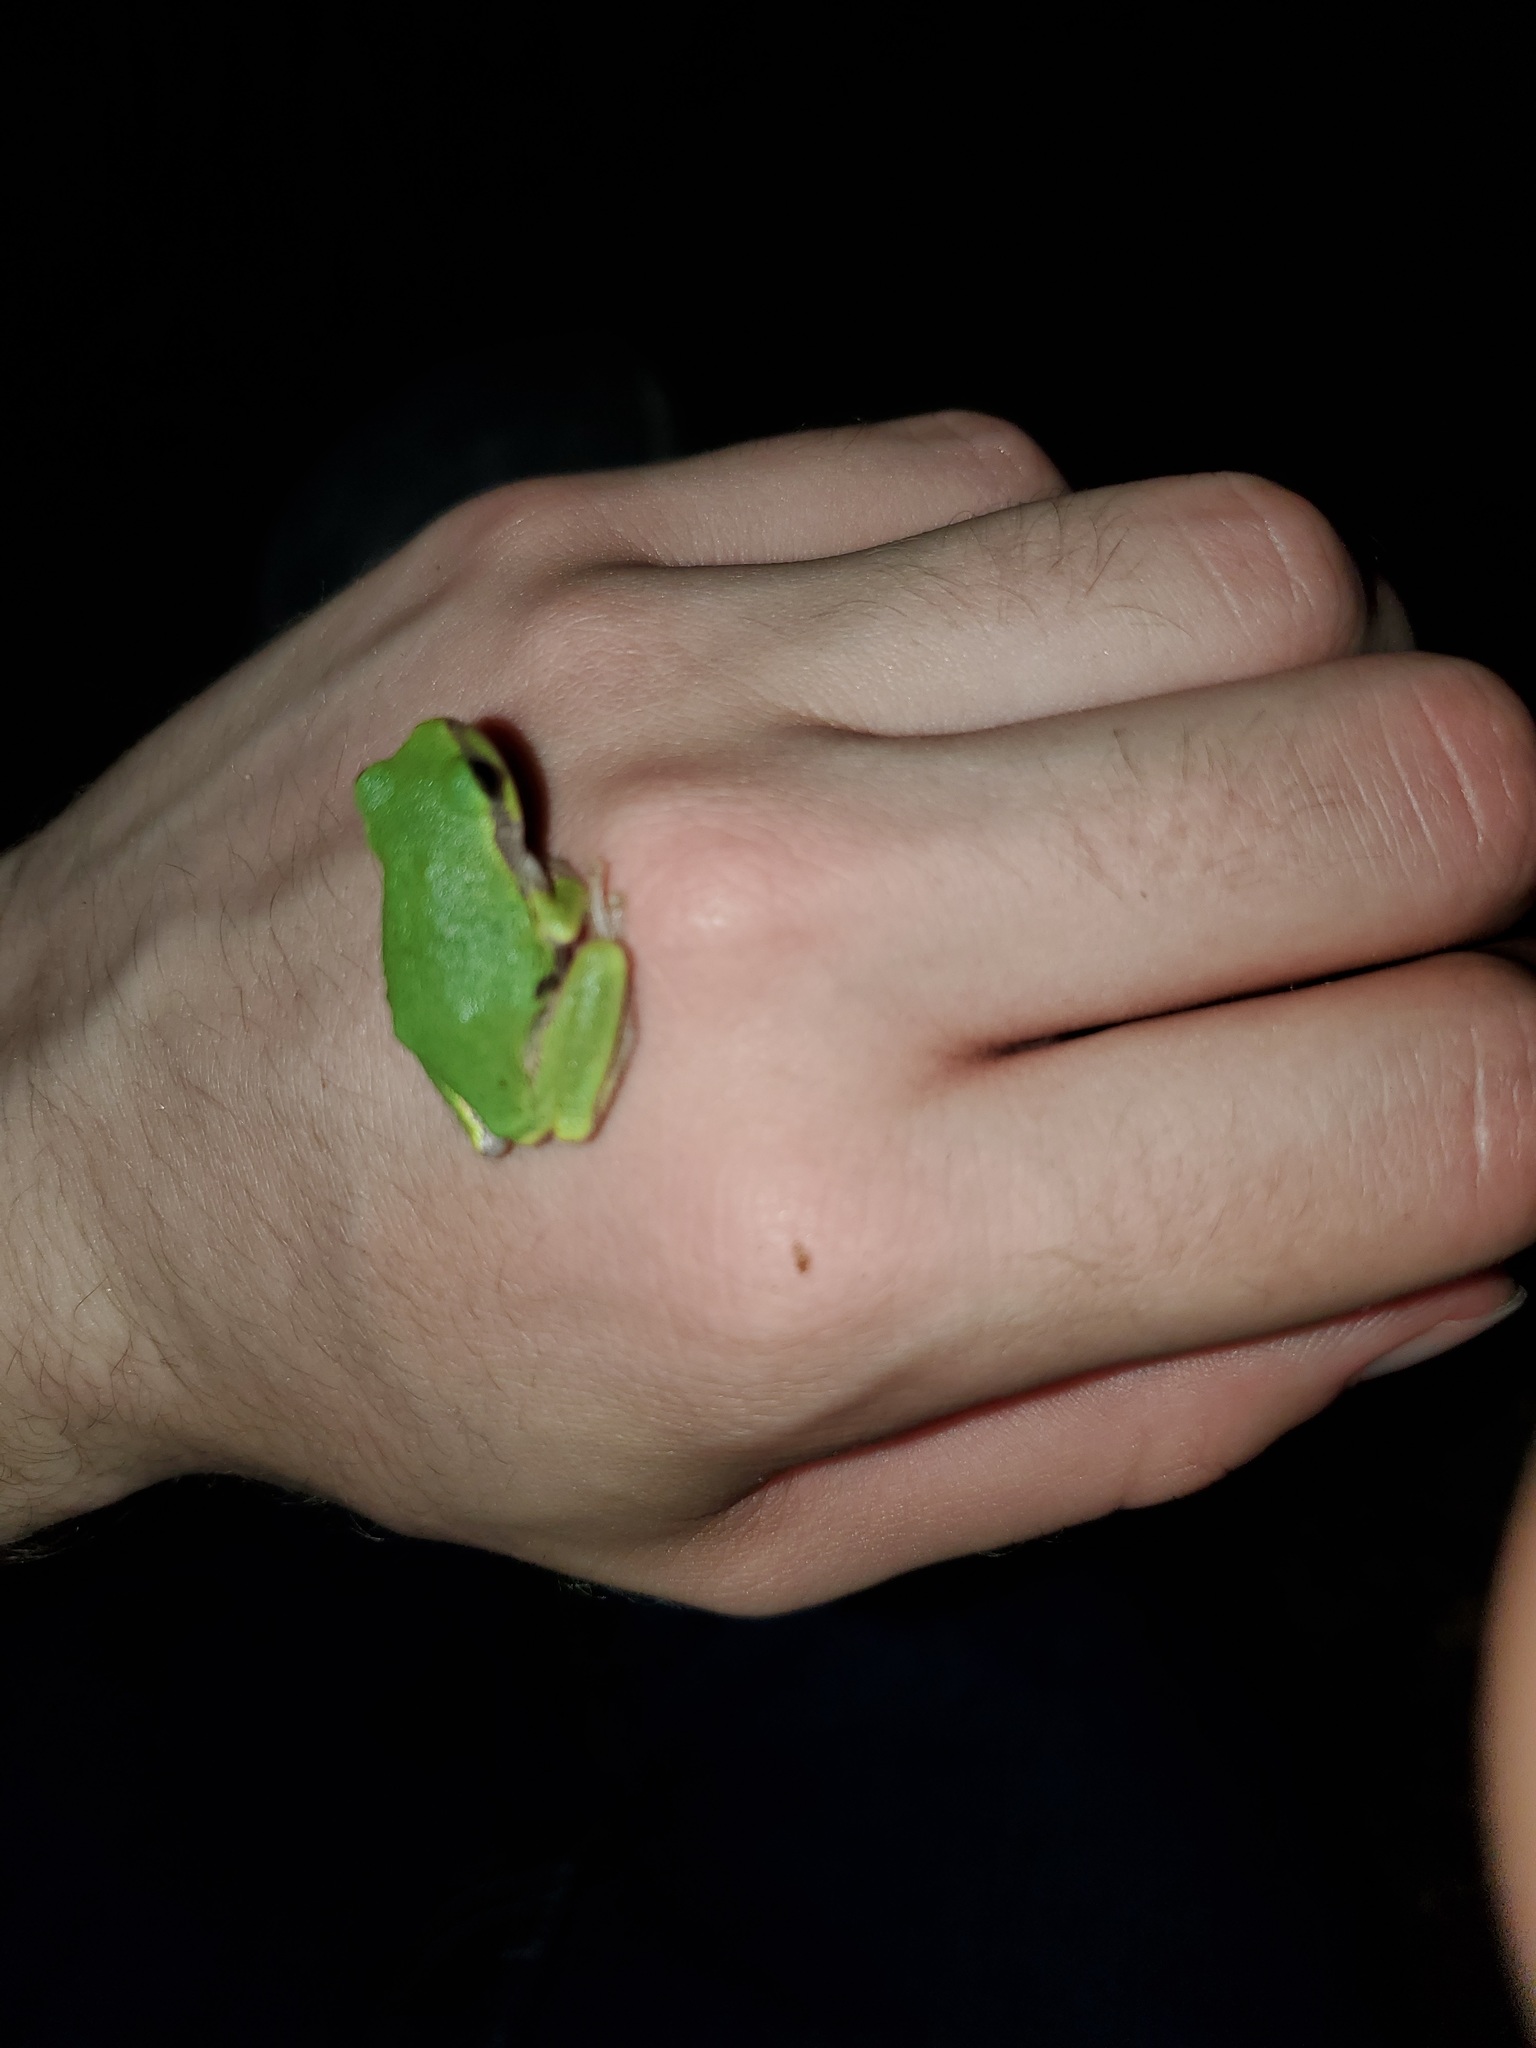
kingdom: Animalia
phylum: Chordata
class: Amphibia
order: Anura
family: Hylidae
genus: Dryophytes
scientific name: Dryophytes chrysoscelis
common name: Cope's gray treefrog
